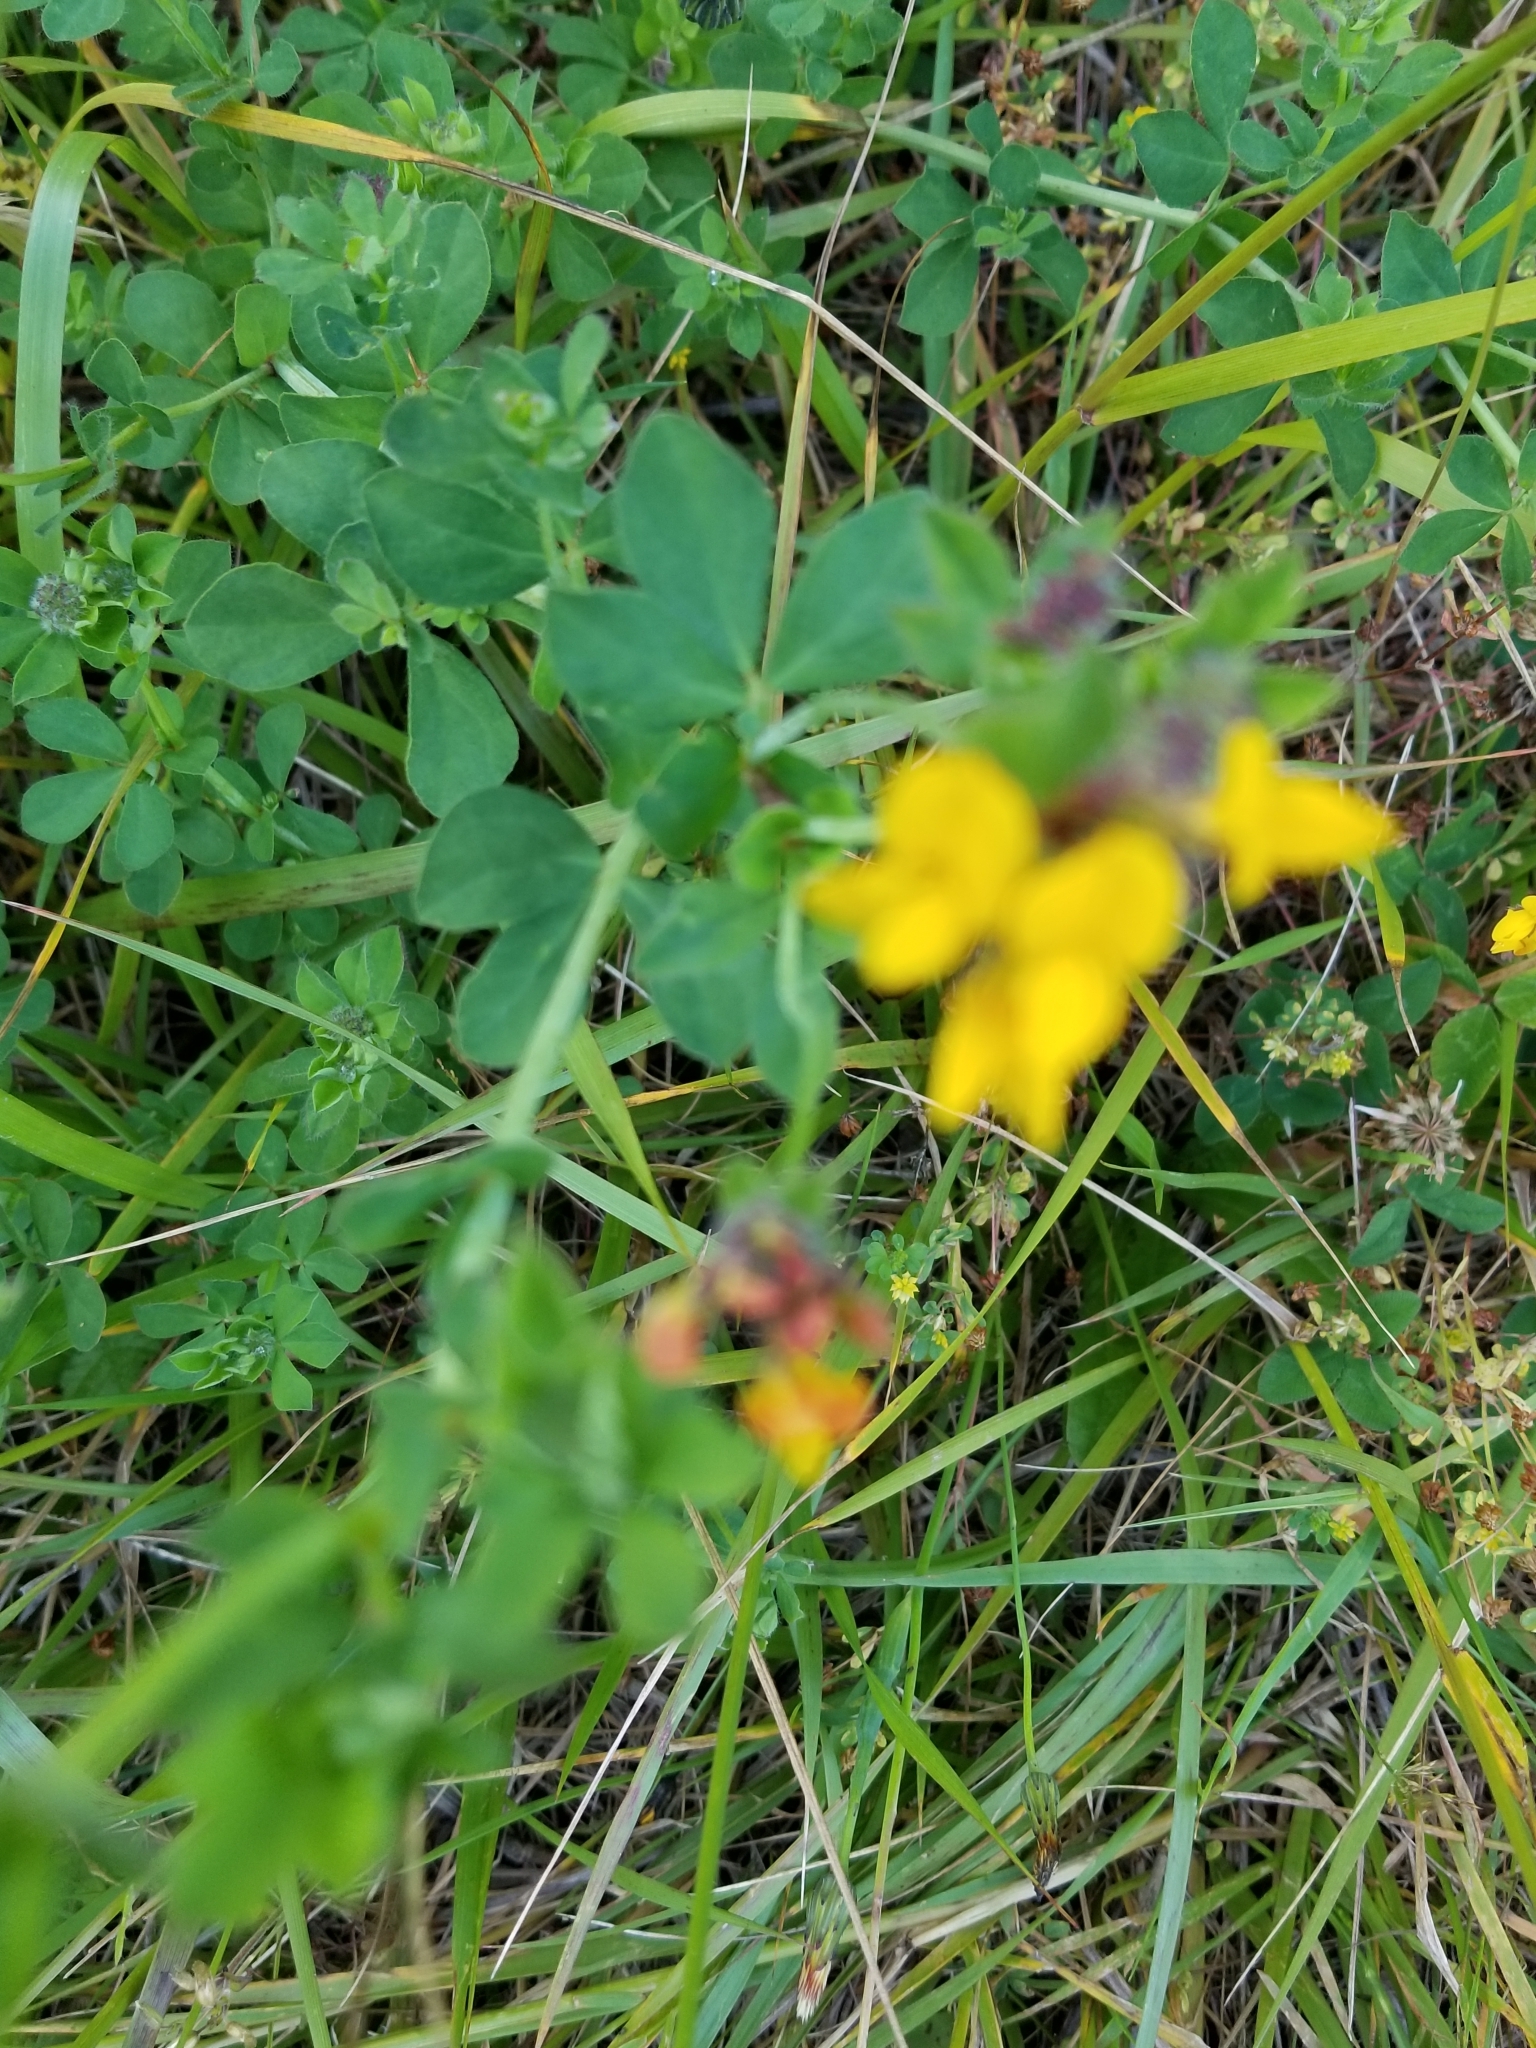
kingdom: Plantae
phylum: Tracheophyta
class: Magnoliopsida
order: Fabales
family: Fabaceae
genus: Lotus
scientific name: Lotus pedunculatus
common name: Greater birdsfoot-trefoil
